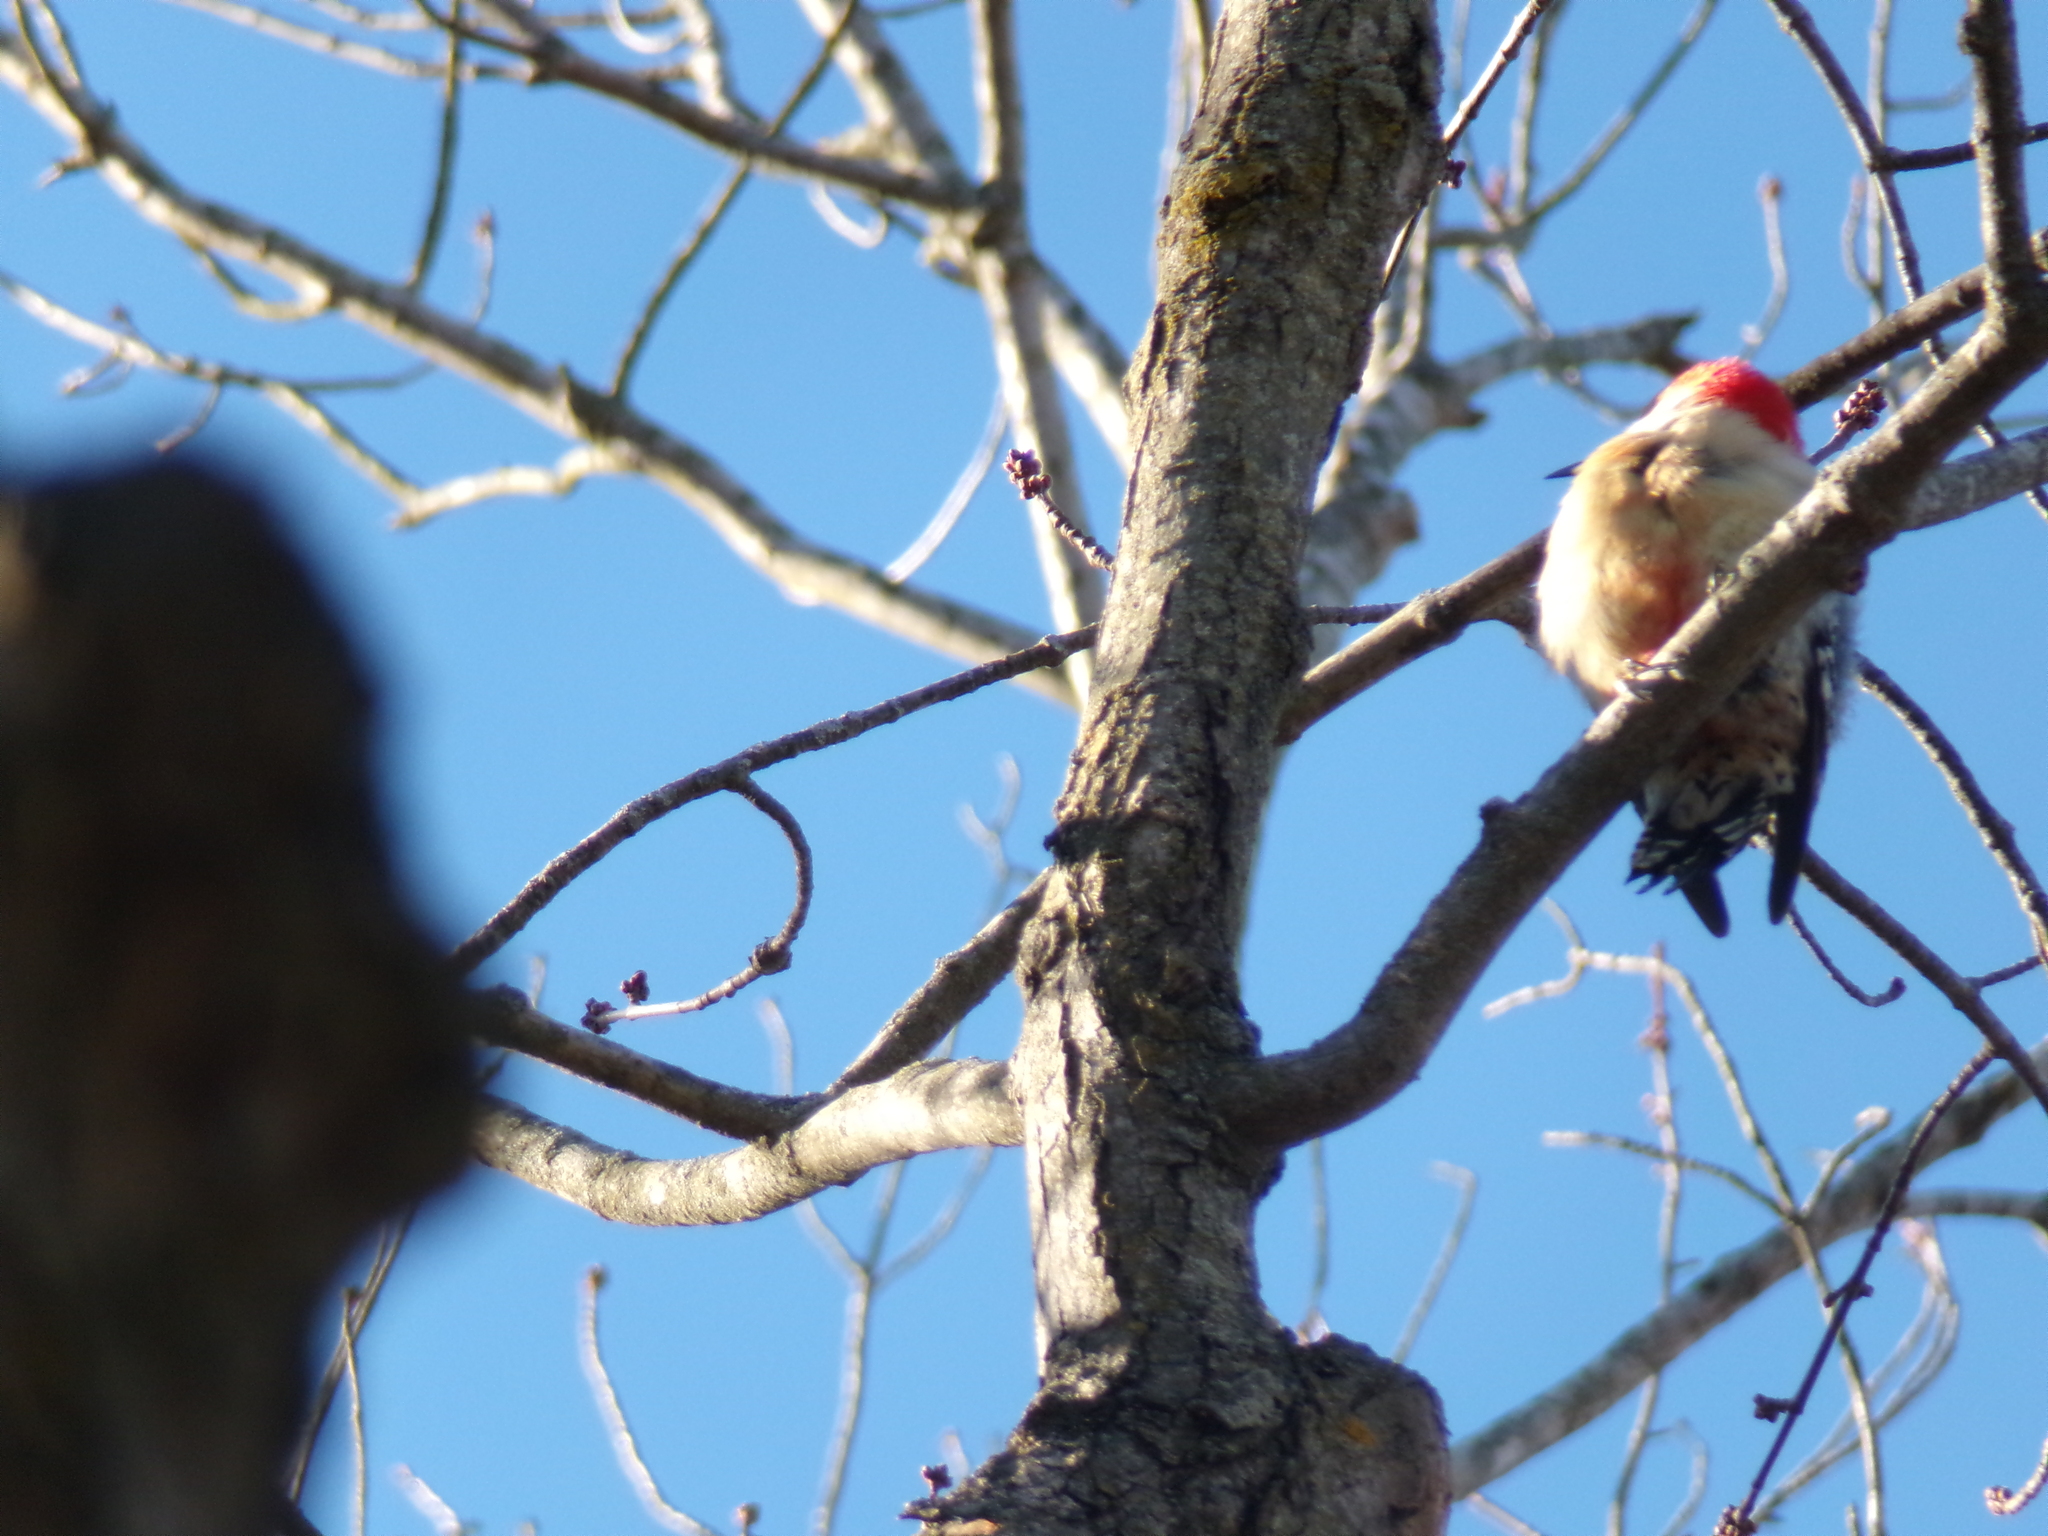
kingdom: Animalia
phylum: Chordata
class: Aves
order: Piciformes
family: Picidae
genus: Melanerpes
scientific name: Melanerpes carolinus
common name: Red-bellied woodpecker
